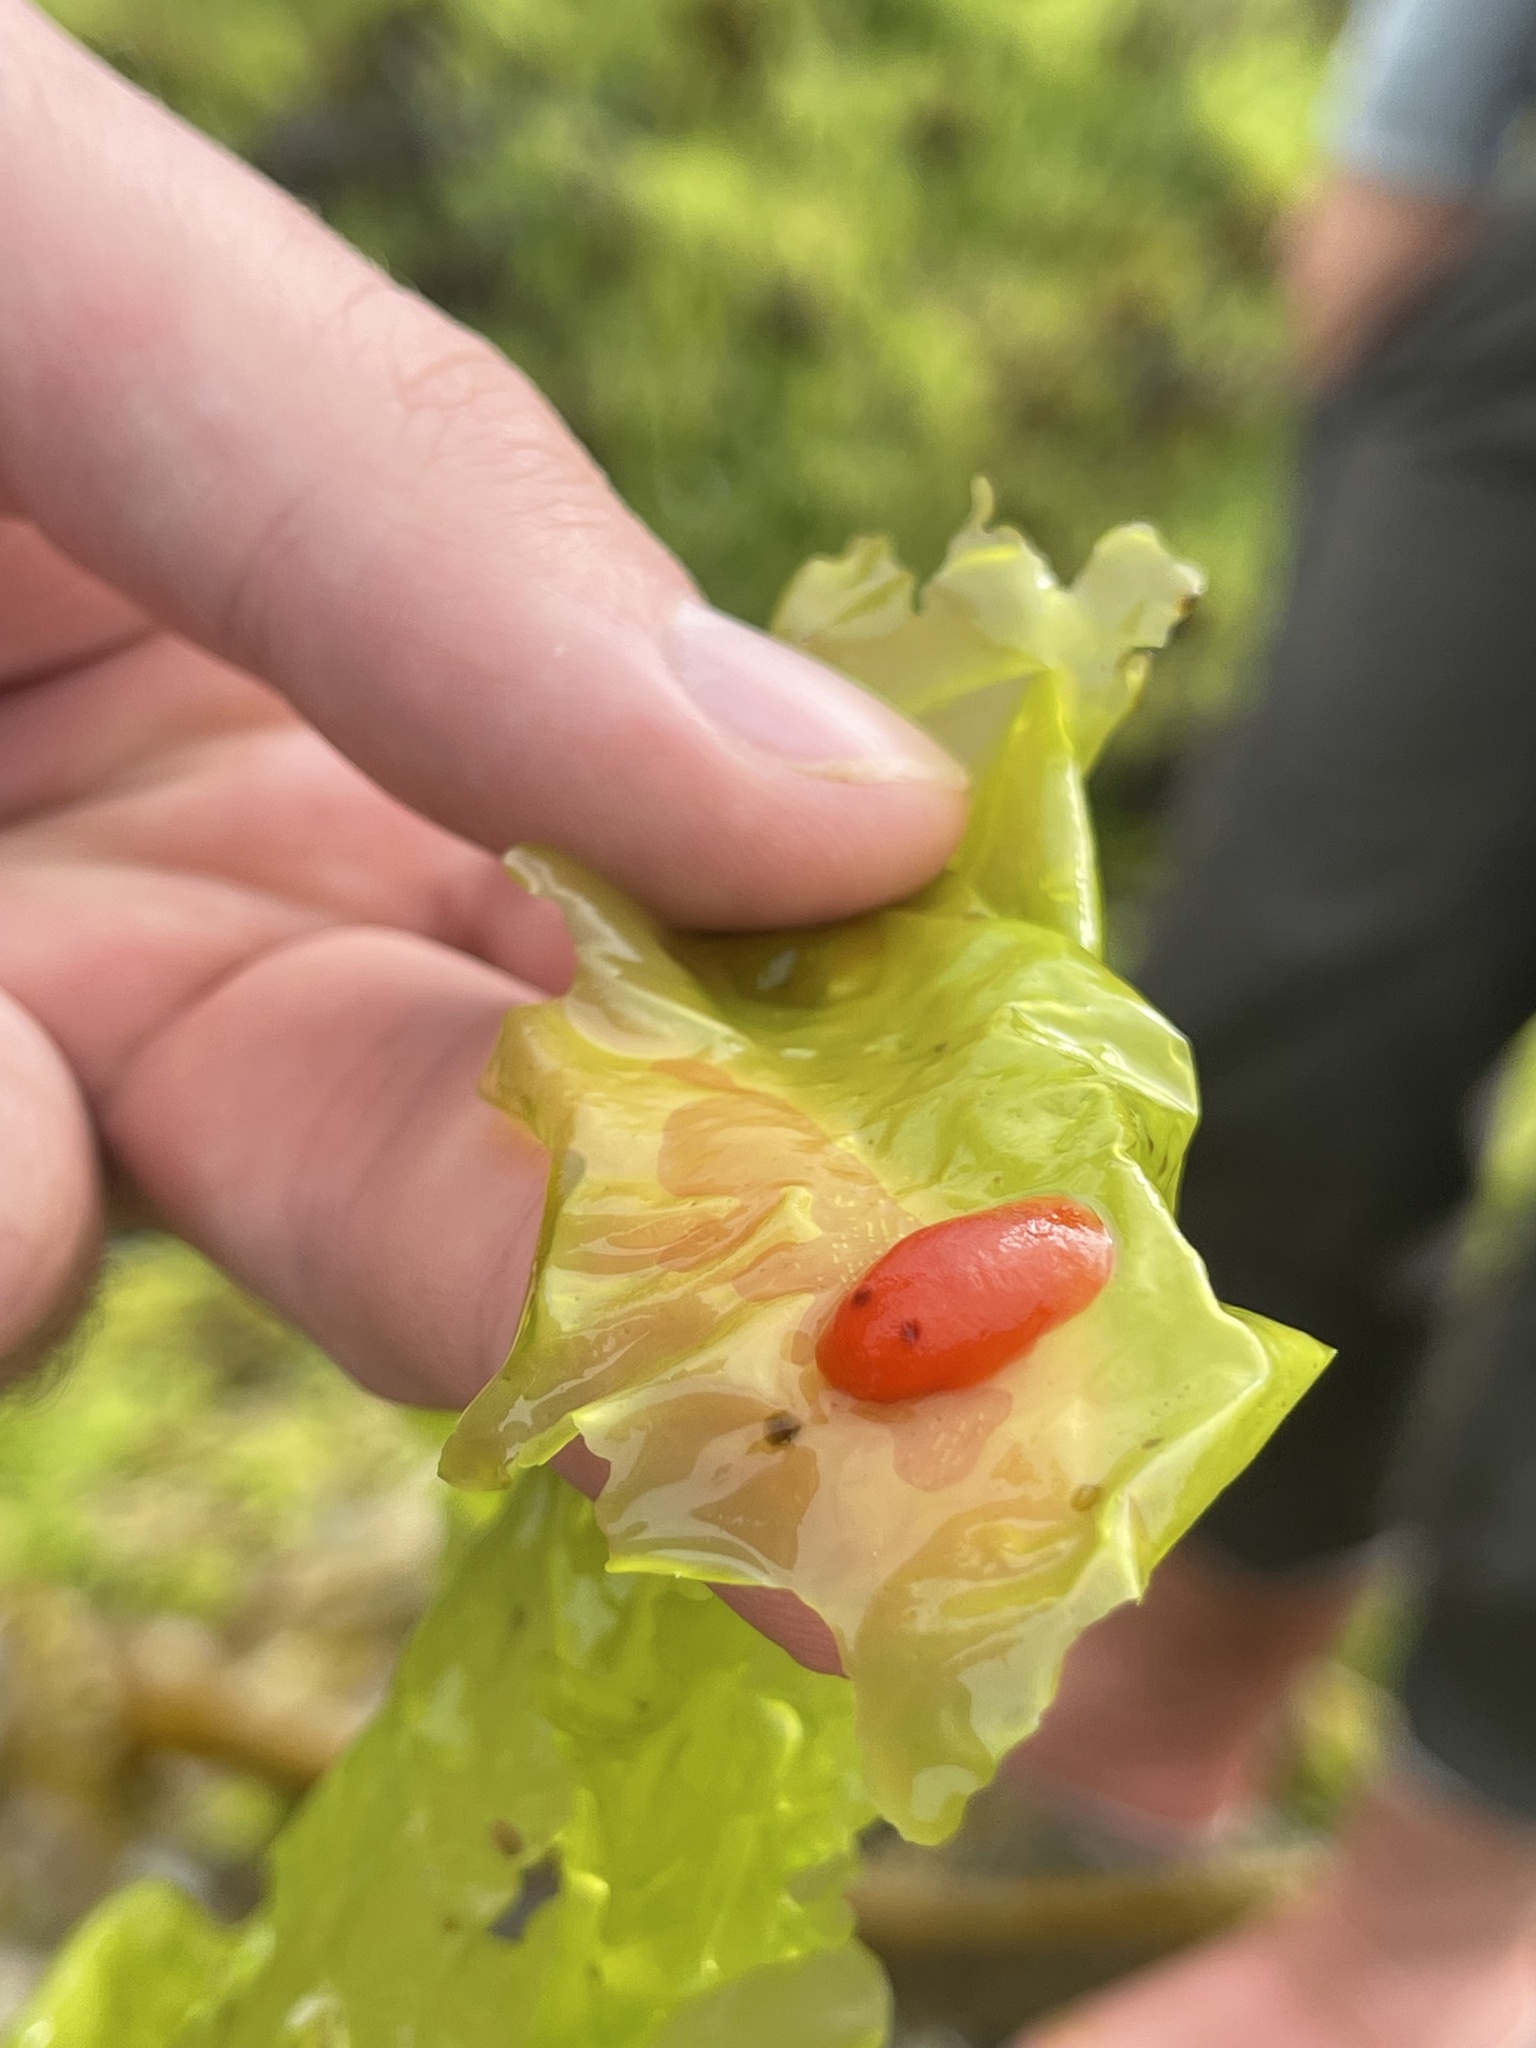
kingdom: Animalia
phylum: Mollusca
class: Gastropoda
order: Nudibranchia
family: Discodorididae
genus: Rostanga
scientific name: Rostanga pulchra
